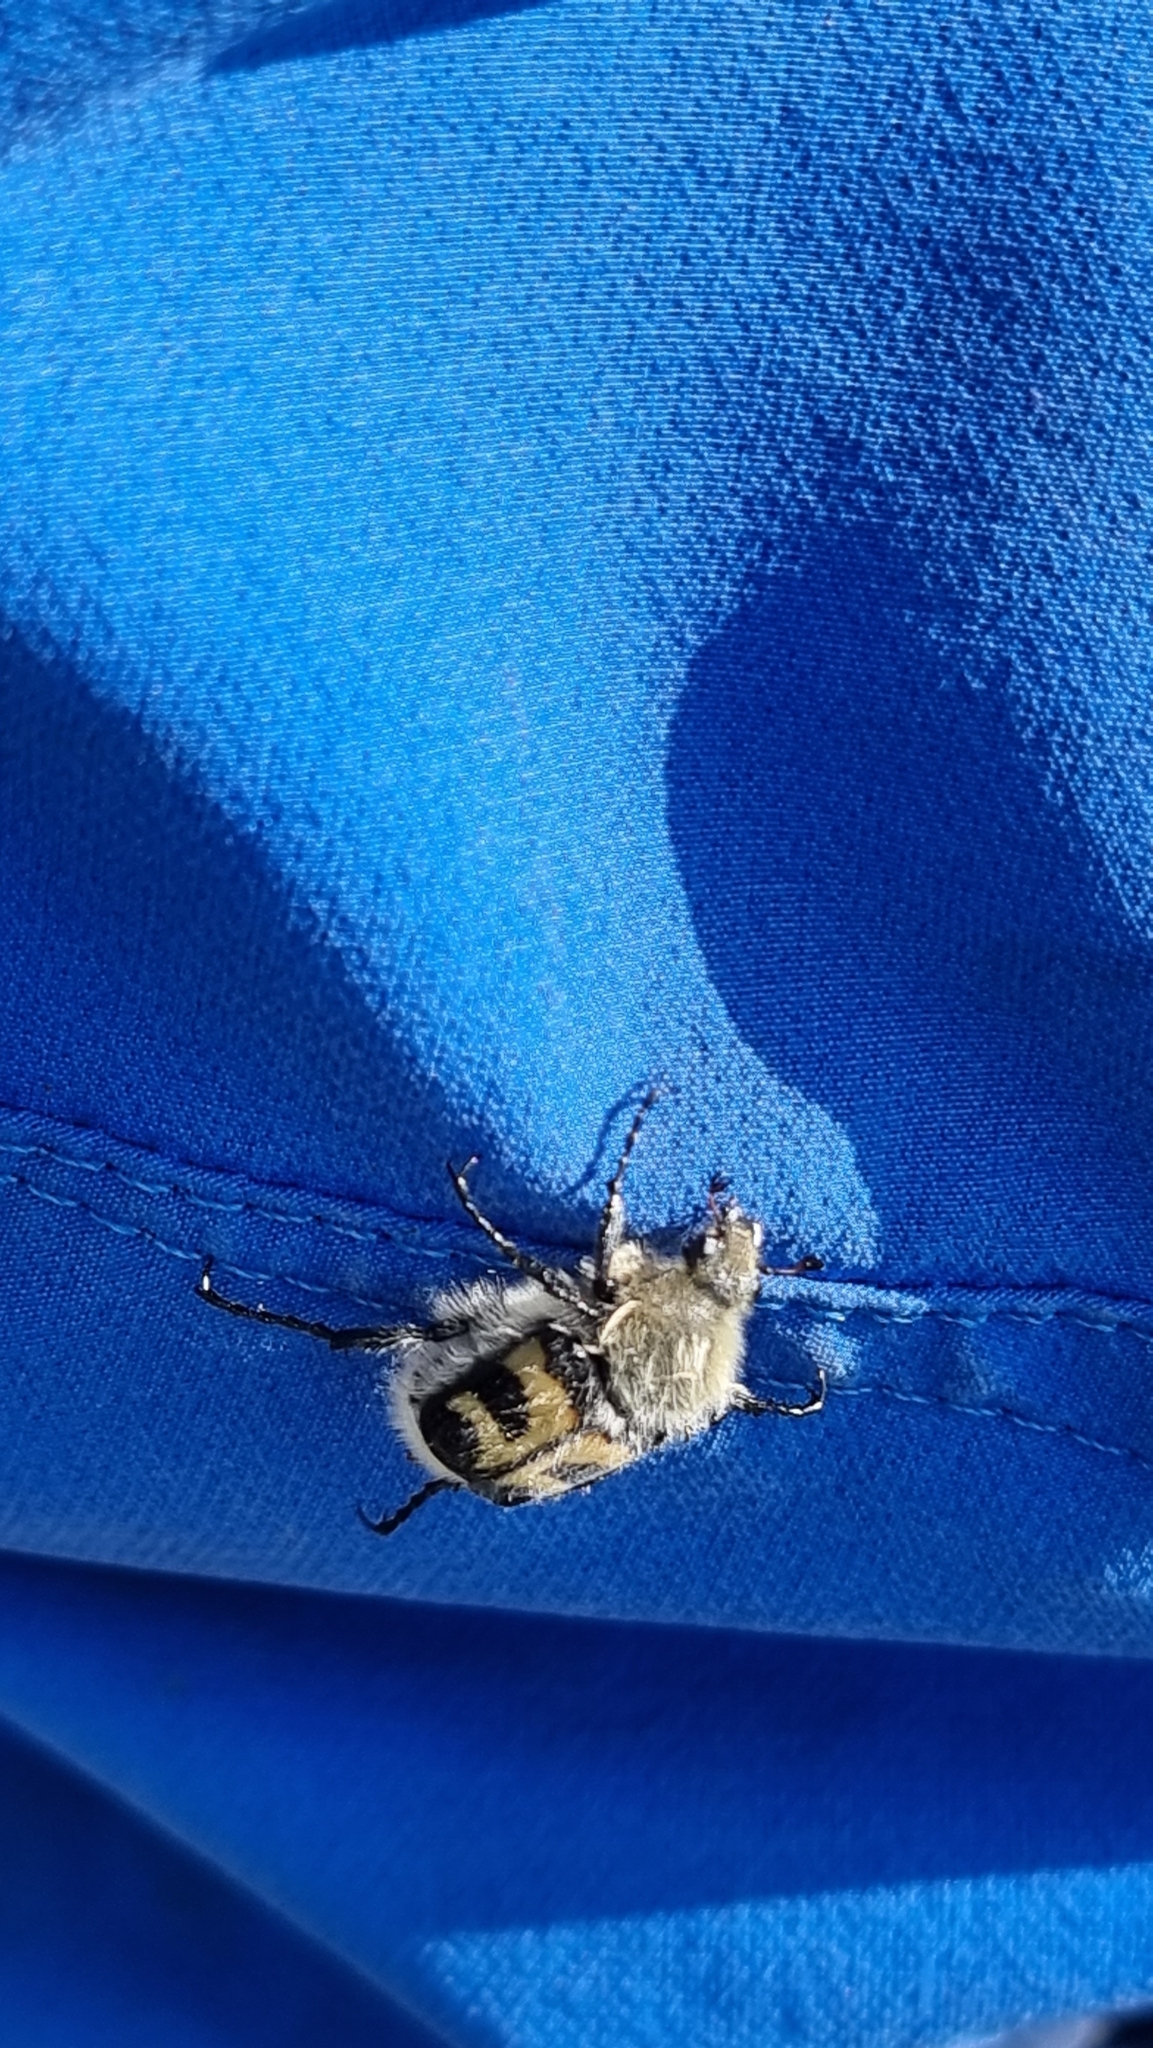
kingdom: Animalia
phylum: Arthropoda
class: Insecta
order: Coleoptera
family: Scarabaeidae
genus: Trichius
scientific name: Trichius fasciatus
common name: Bee beetle
